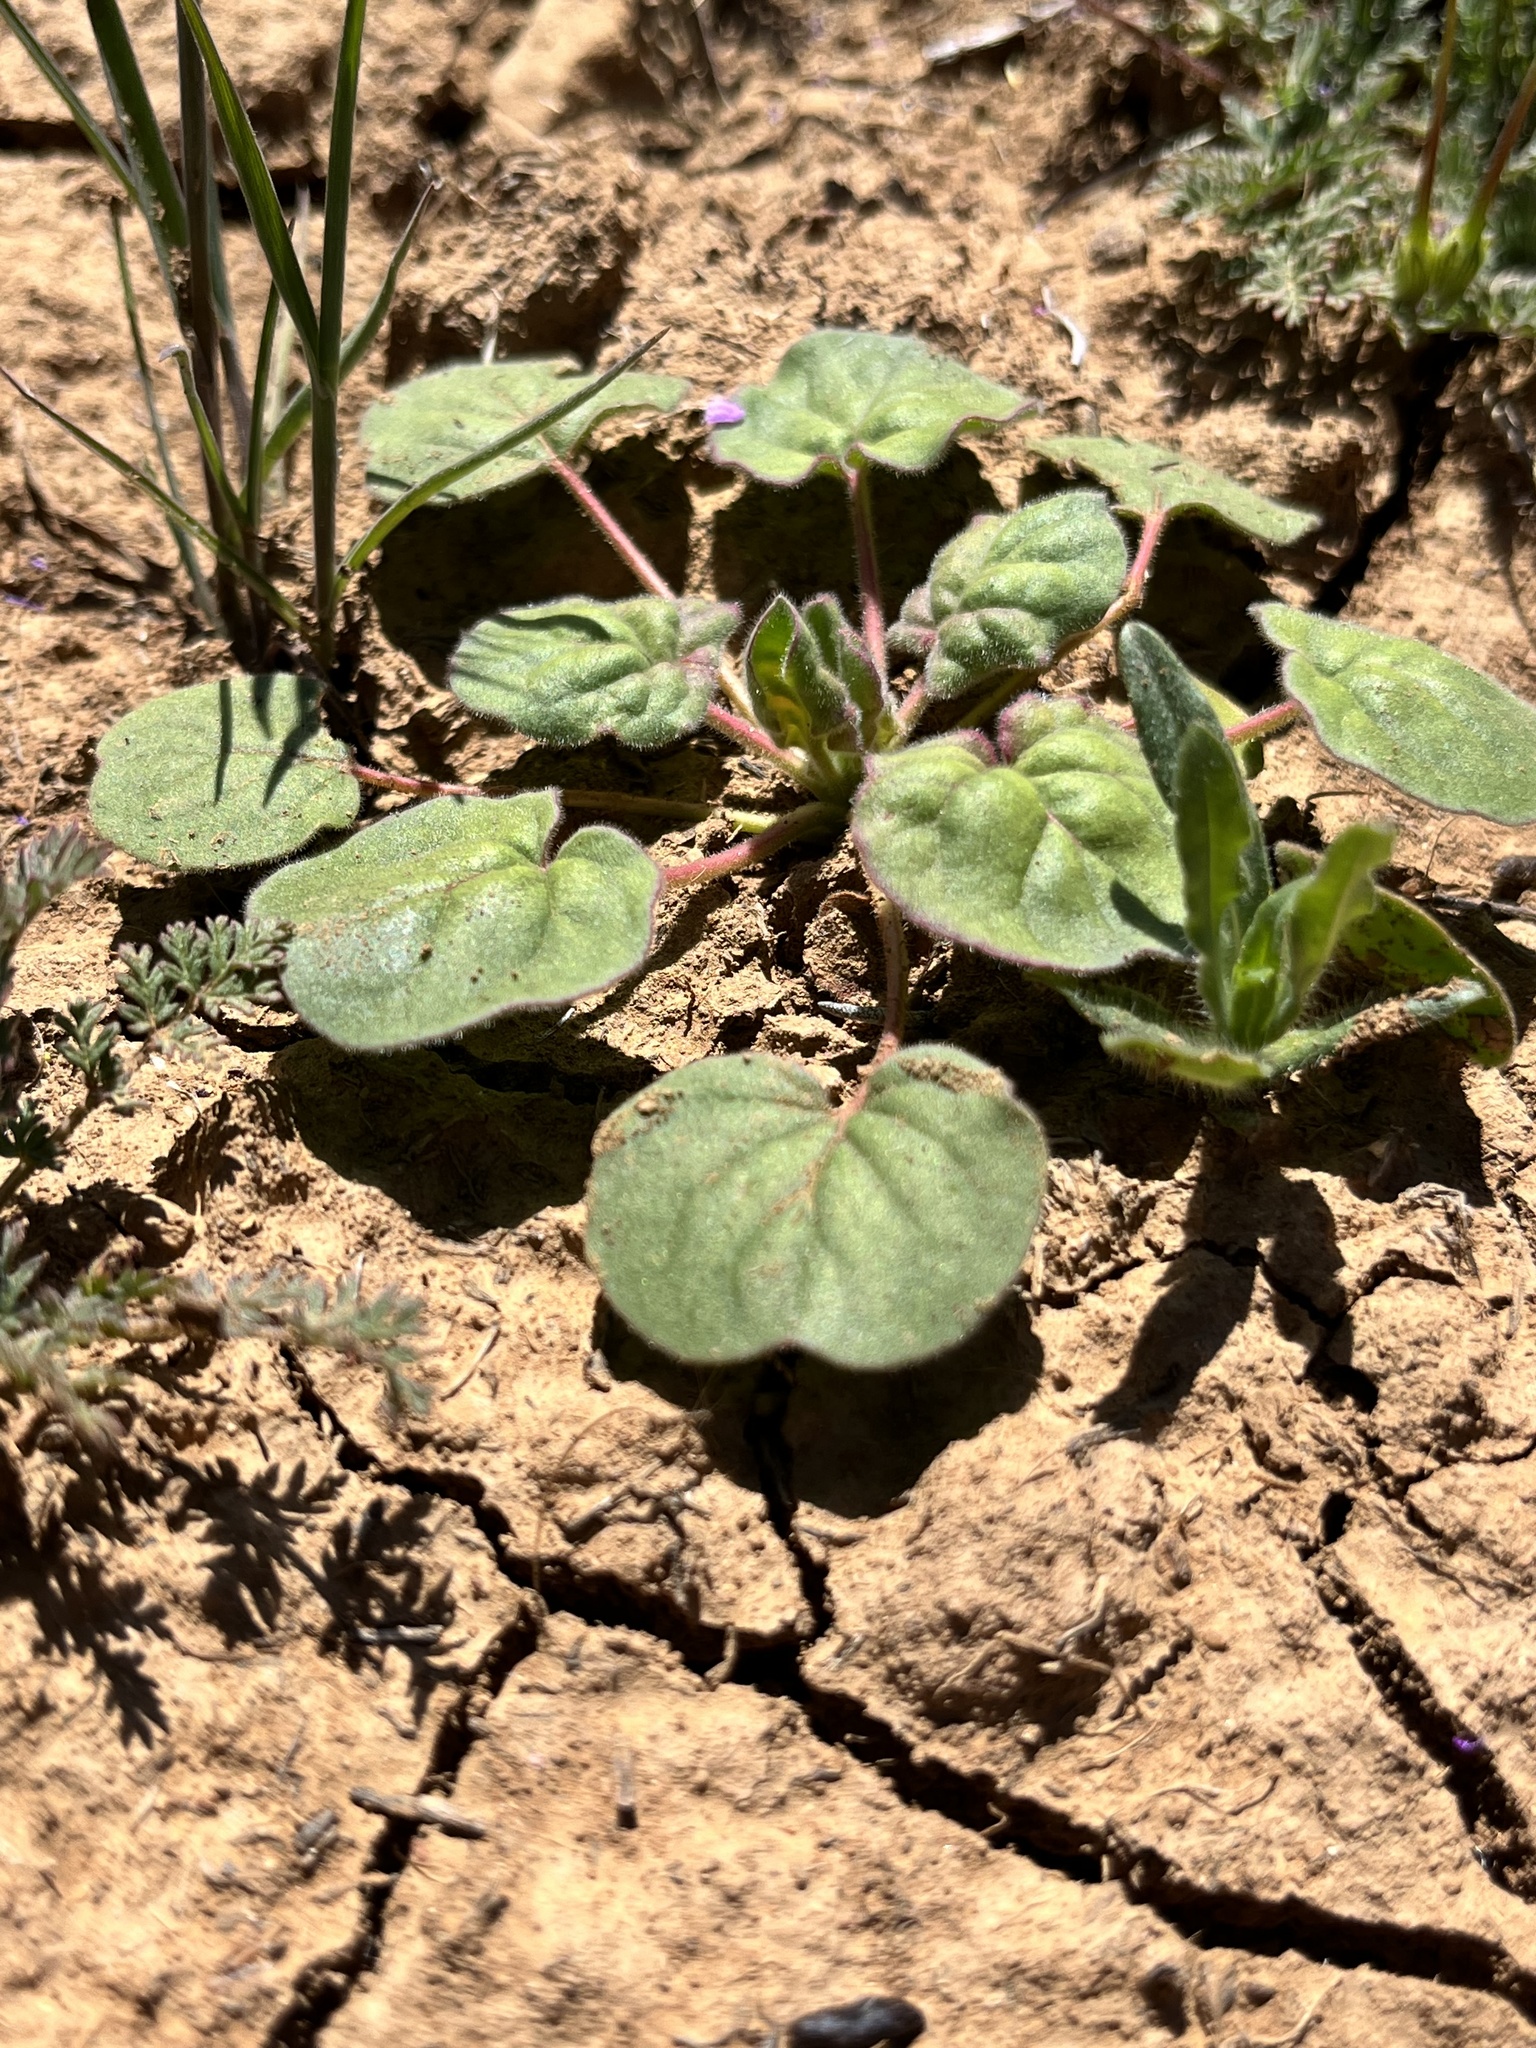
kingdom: Plantae
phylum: Tracheophyta
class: Magnoliopsida
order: Caryophyllales
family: Polygonaceae
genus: Eriogonum
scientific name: Eriogonum clavatum
